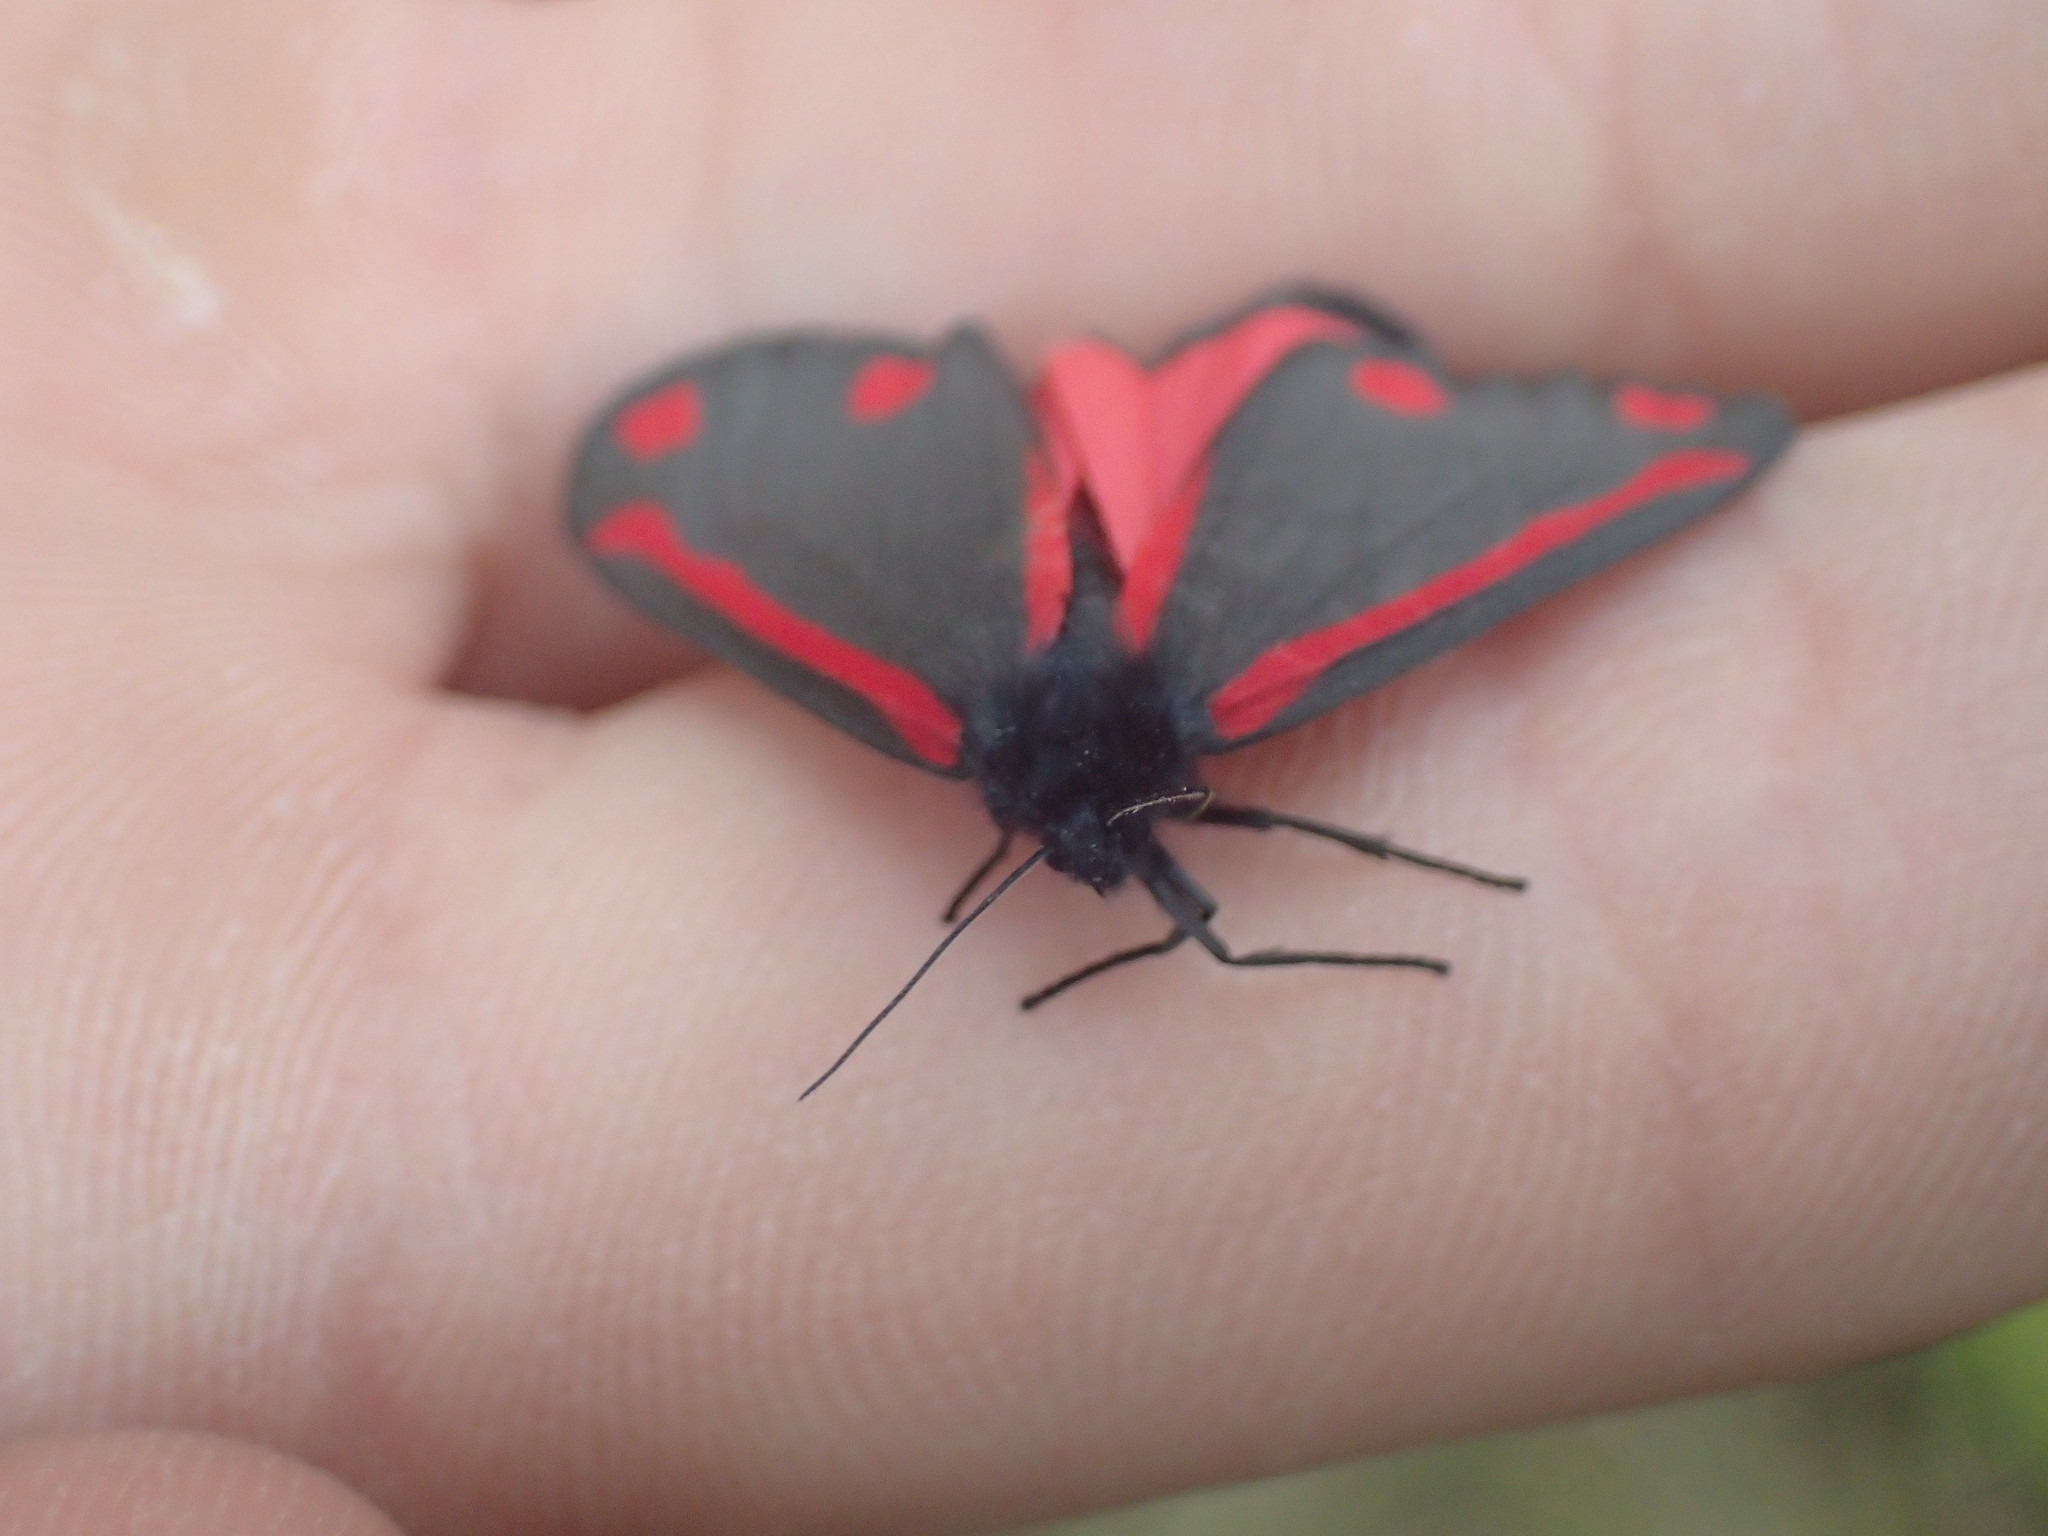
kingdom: Animalia
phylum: Arthropoda
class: Insecta
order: Lepidoptera
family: Erebidae
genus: Tyria
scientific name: Tyria jacobaeae
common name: Cinnabar
